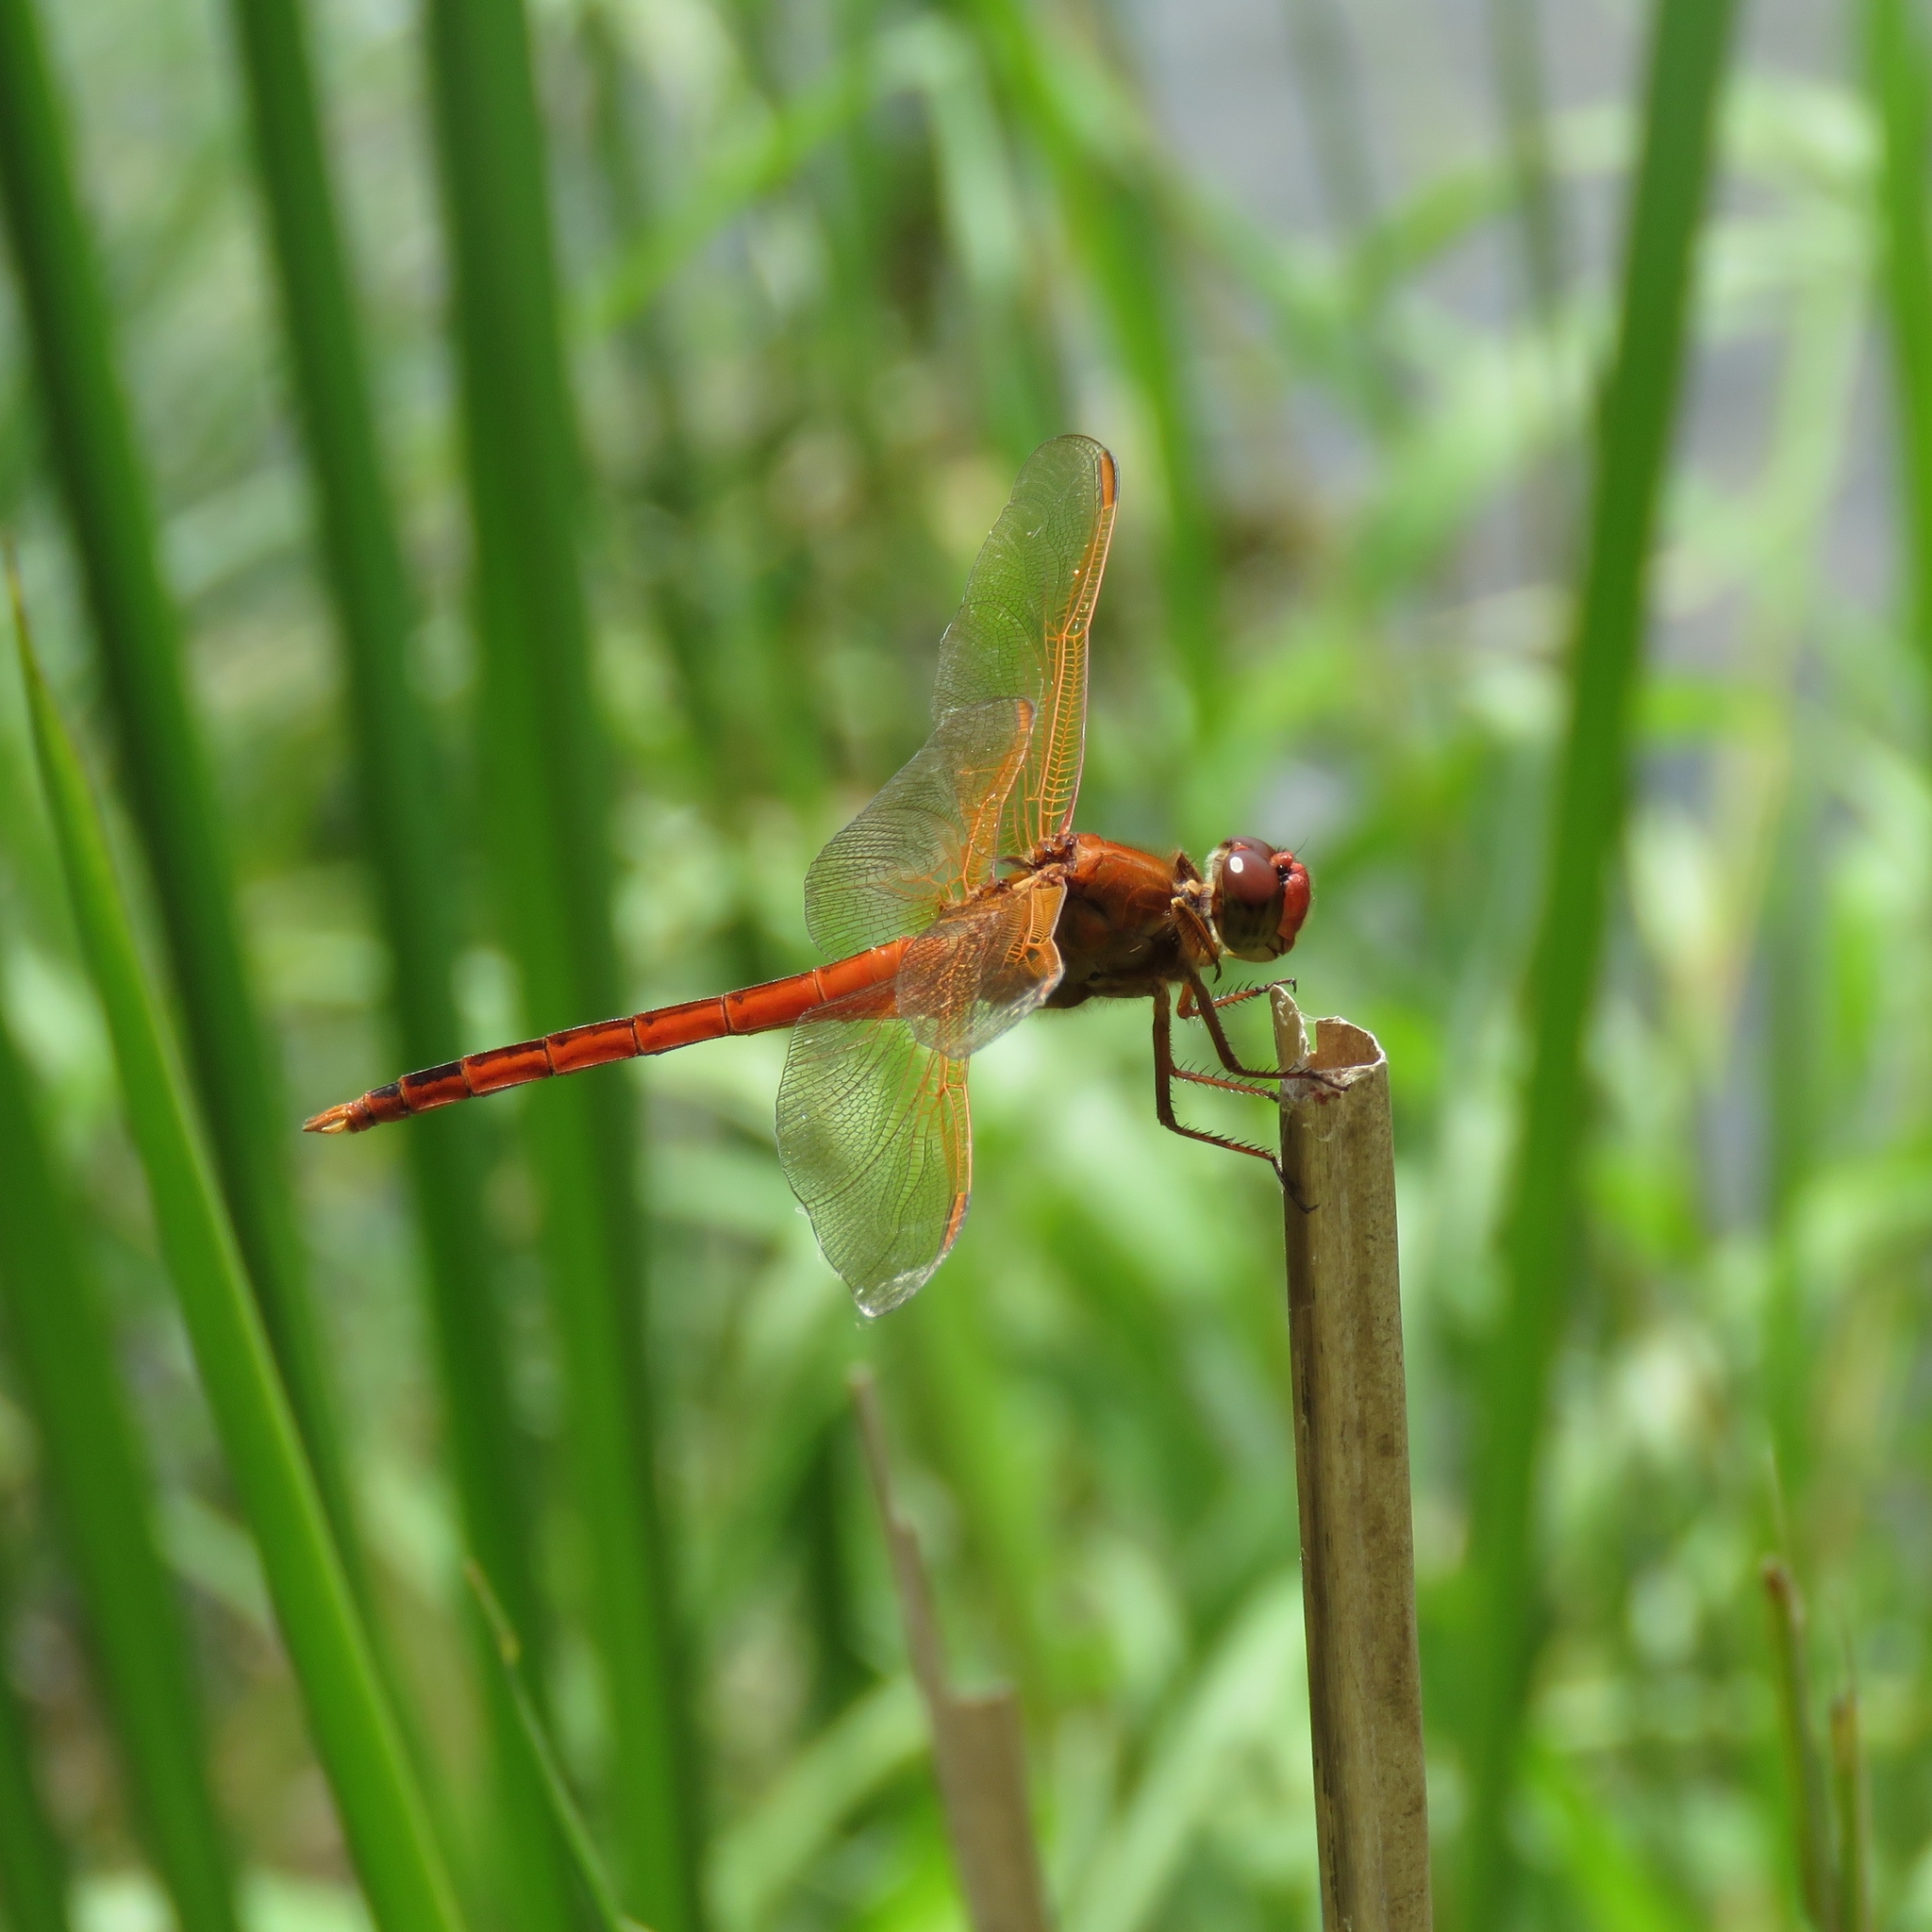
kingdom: Animalia
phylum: Arthropoda
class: Insecta
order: Odonata
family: Libellulidae
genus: Libellula
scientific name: Libellula needhami
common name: Needham's skimmer
